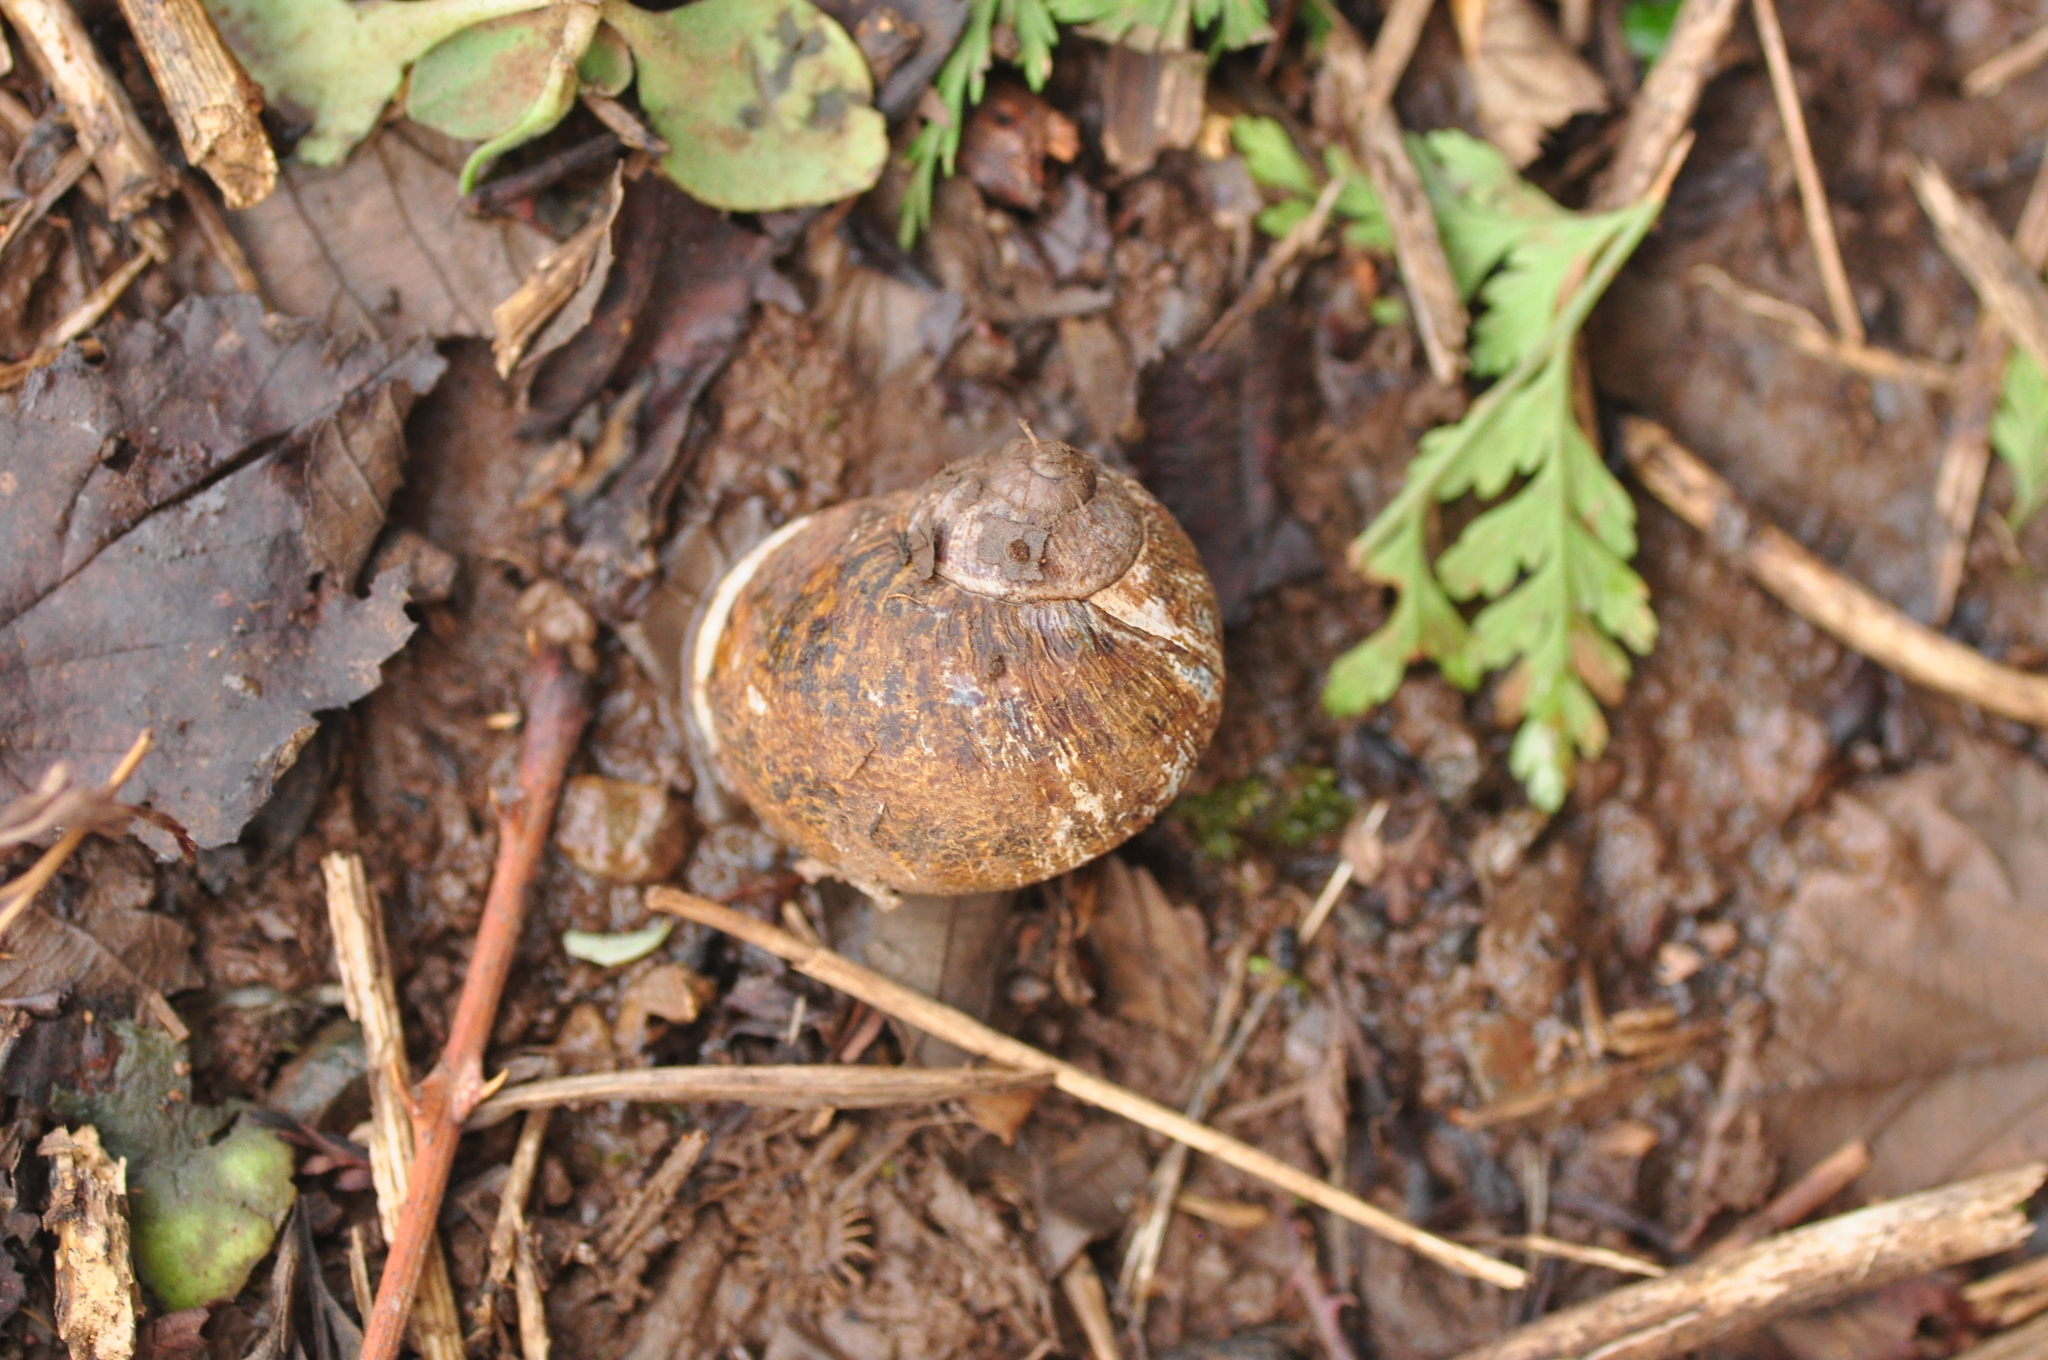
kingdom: Animalia
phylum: Mollusca
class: Gastropoda
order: Stylommatophora
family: Helicidae
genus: Cornu
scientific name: Cornu aspersum
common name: Brown garden snail
